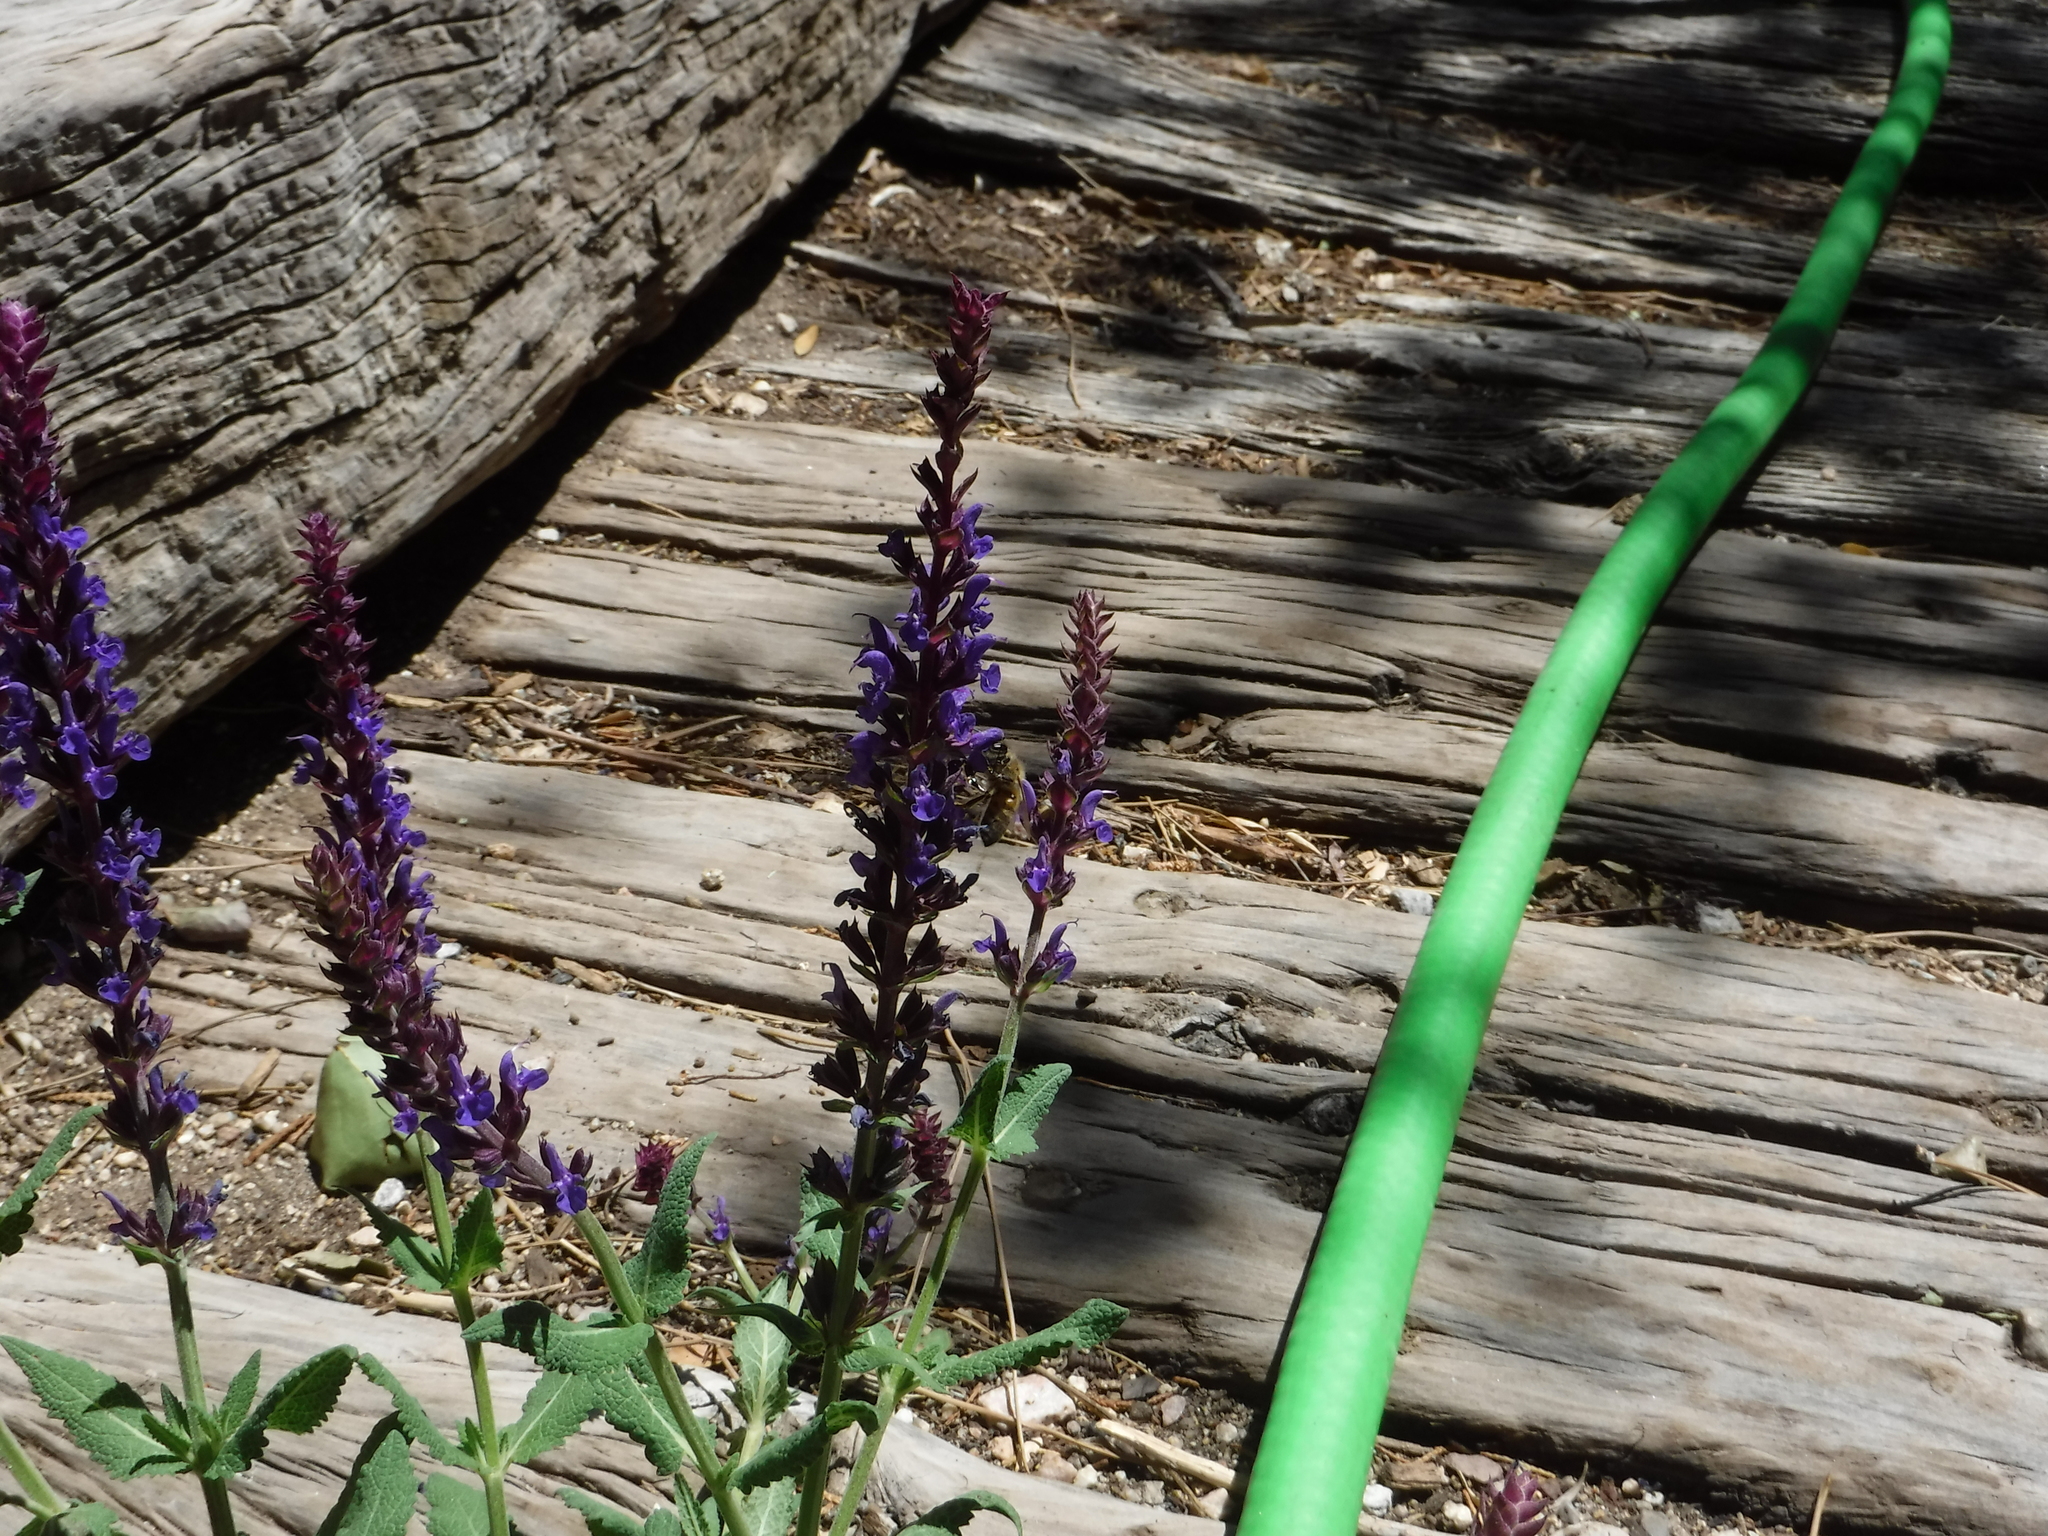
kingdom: Animalia
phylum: Arthropoda
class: Insecta
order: Hymenoptera
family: Apidae
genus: Apis
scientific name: Apis mellifera
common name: Honey bee
